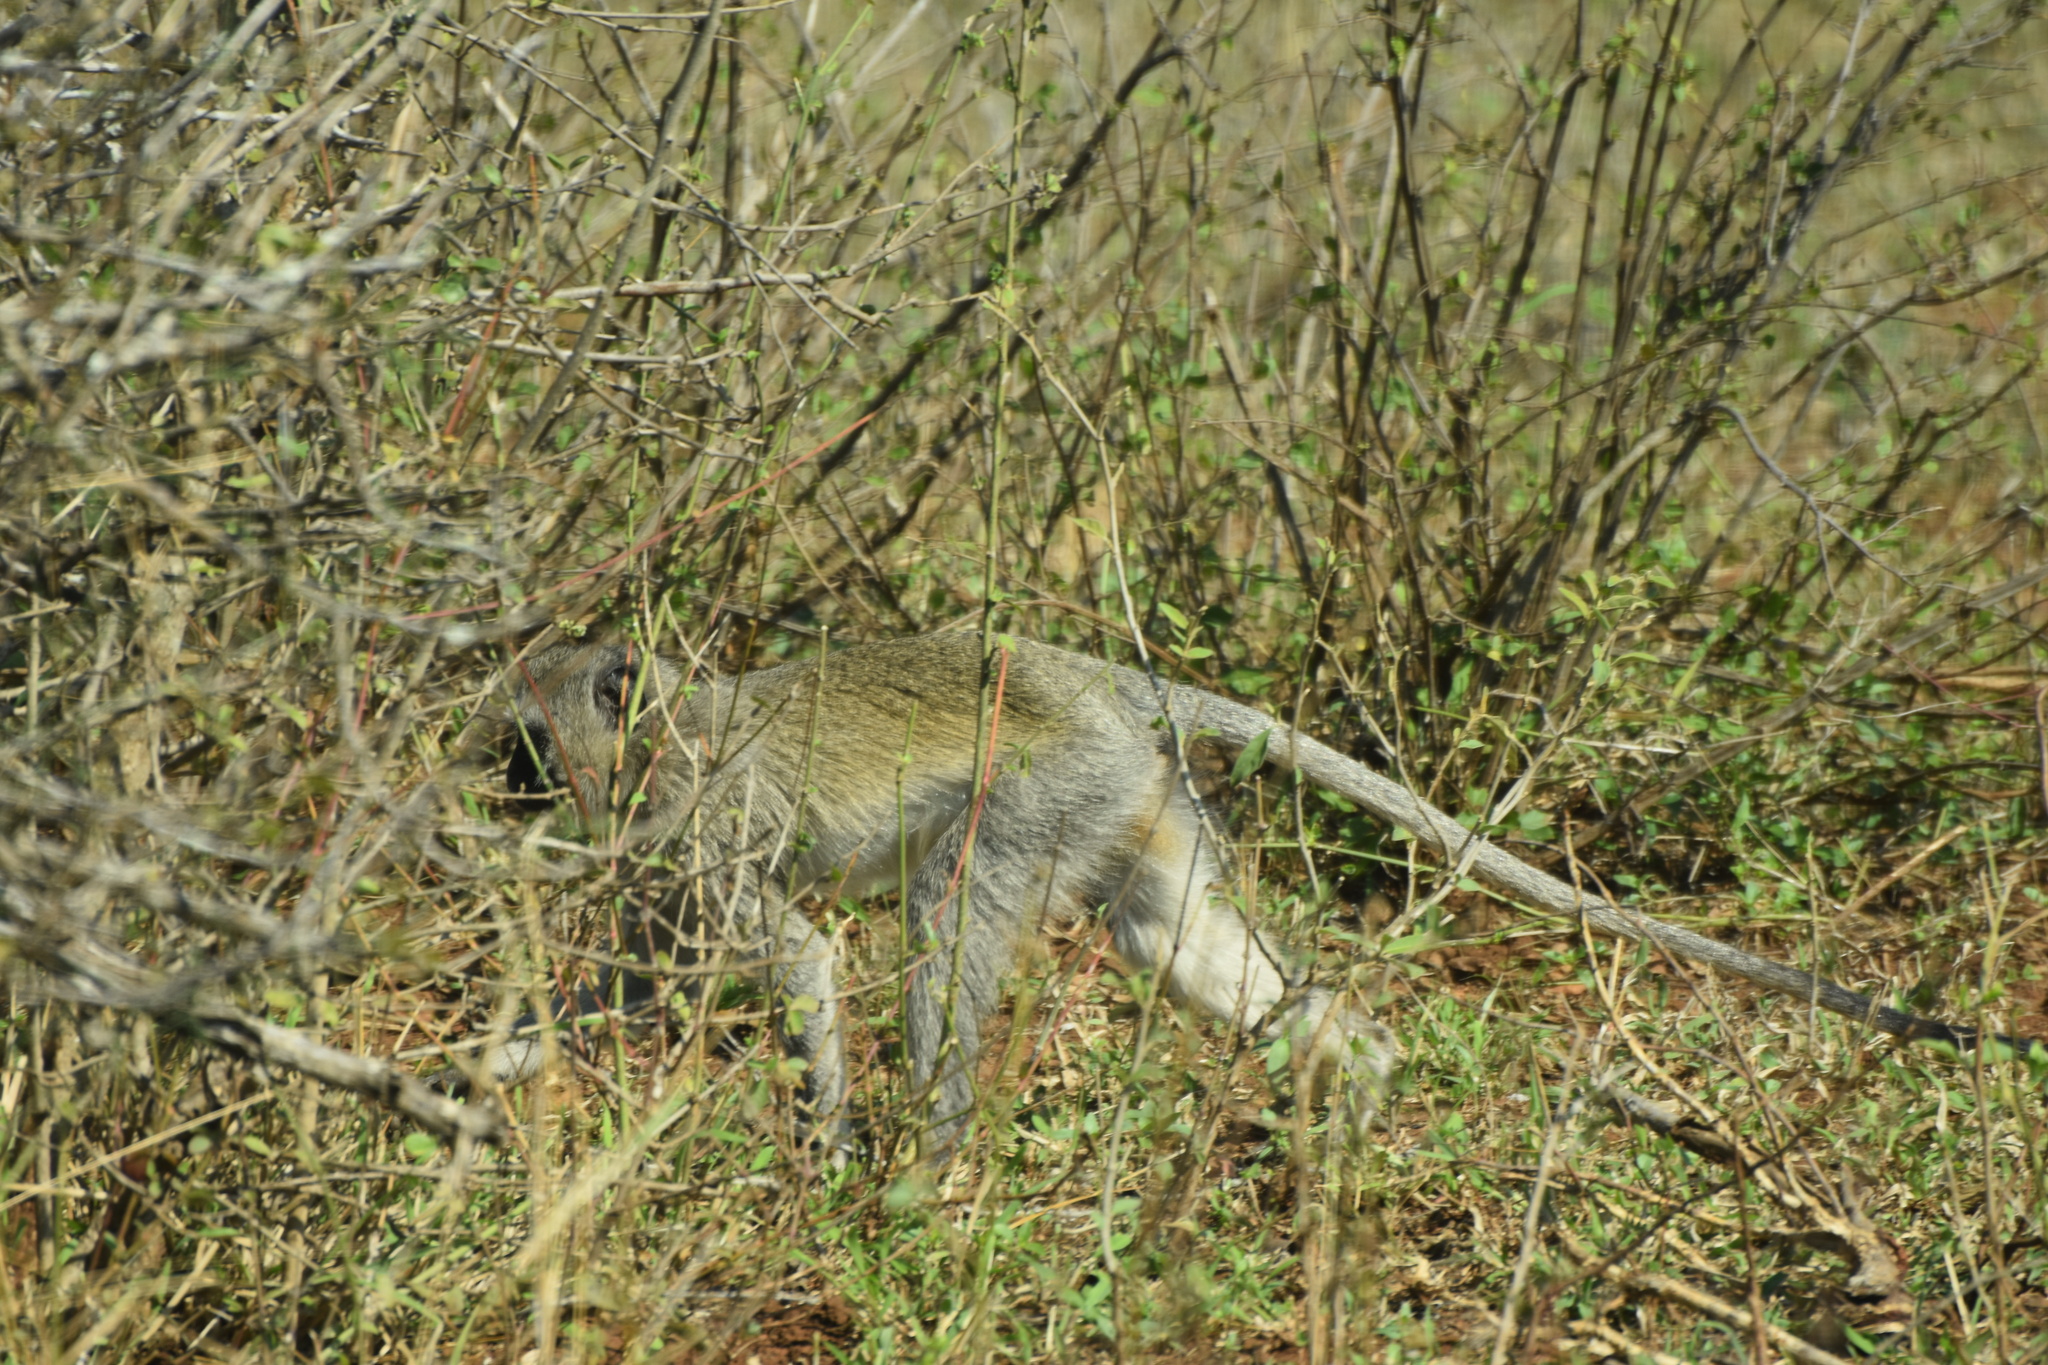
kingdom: Animalia
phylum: Chordata
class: Mammalia
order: Primates
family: Cercopithecidae
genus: Chlorocebus
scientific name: Chlorocebus pygerythrus
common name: Vervet monkey
